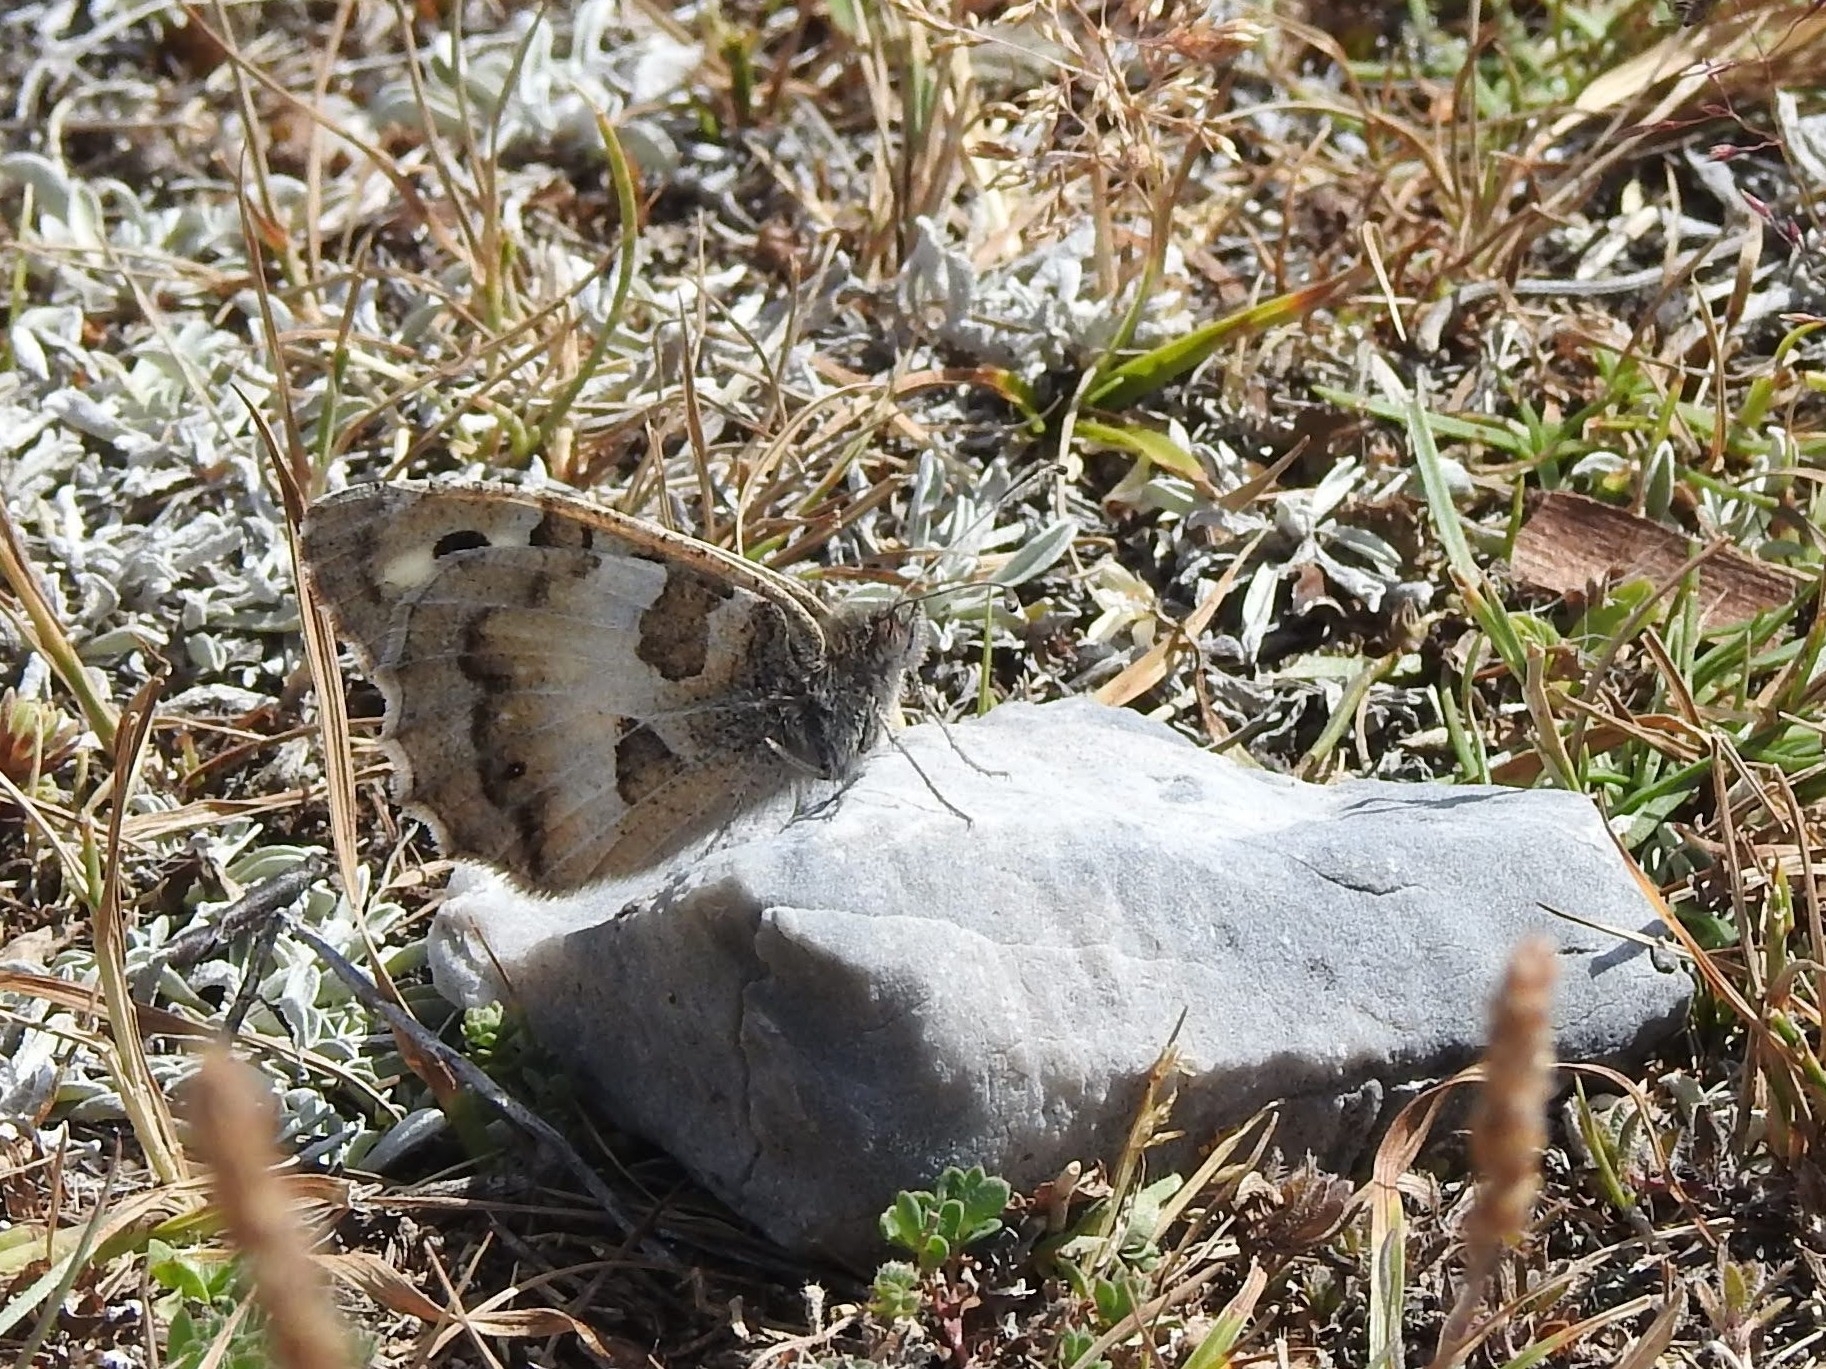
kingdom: Animalia
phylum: Arthropoda
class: Insecta
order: Lepidoptera
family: Nymphalidae
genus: Satyrus
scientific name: Satyrus briseis
